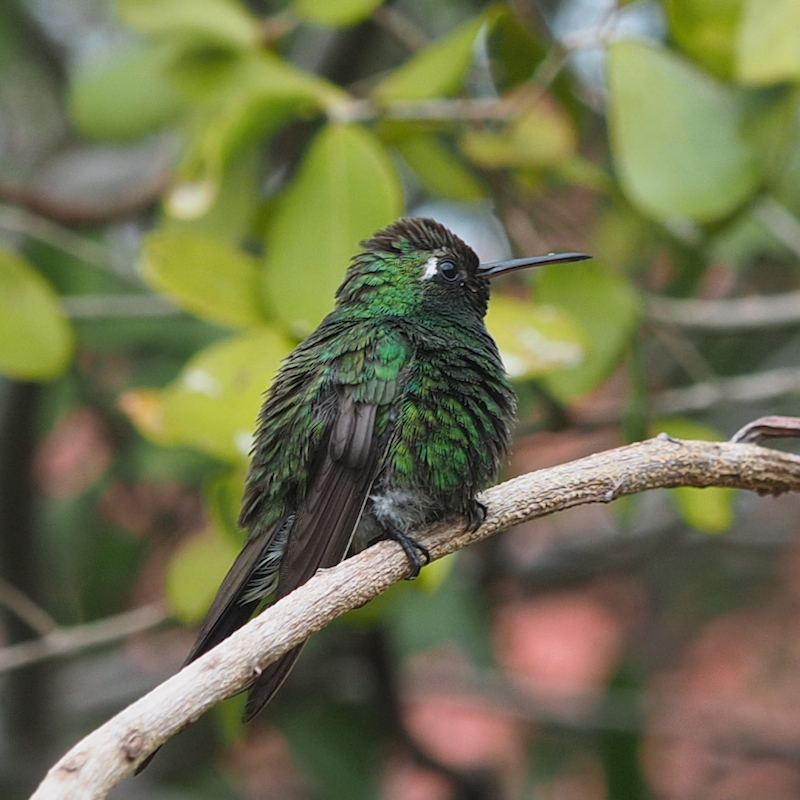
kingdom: Animalia
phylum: Chordata
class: Aves
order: Apodiformes
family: Trochilidae
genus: Riccordia
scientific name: Riccordia ricordii
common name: Cuban emerald
